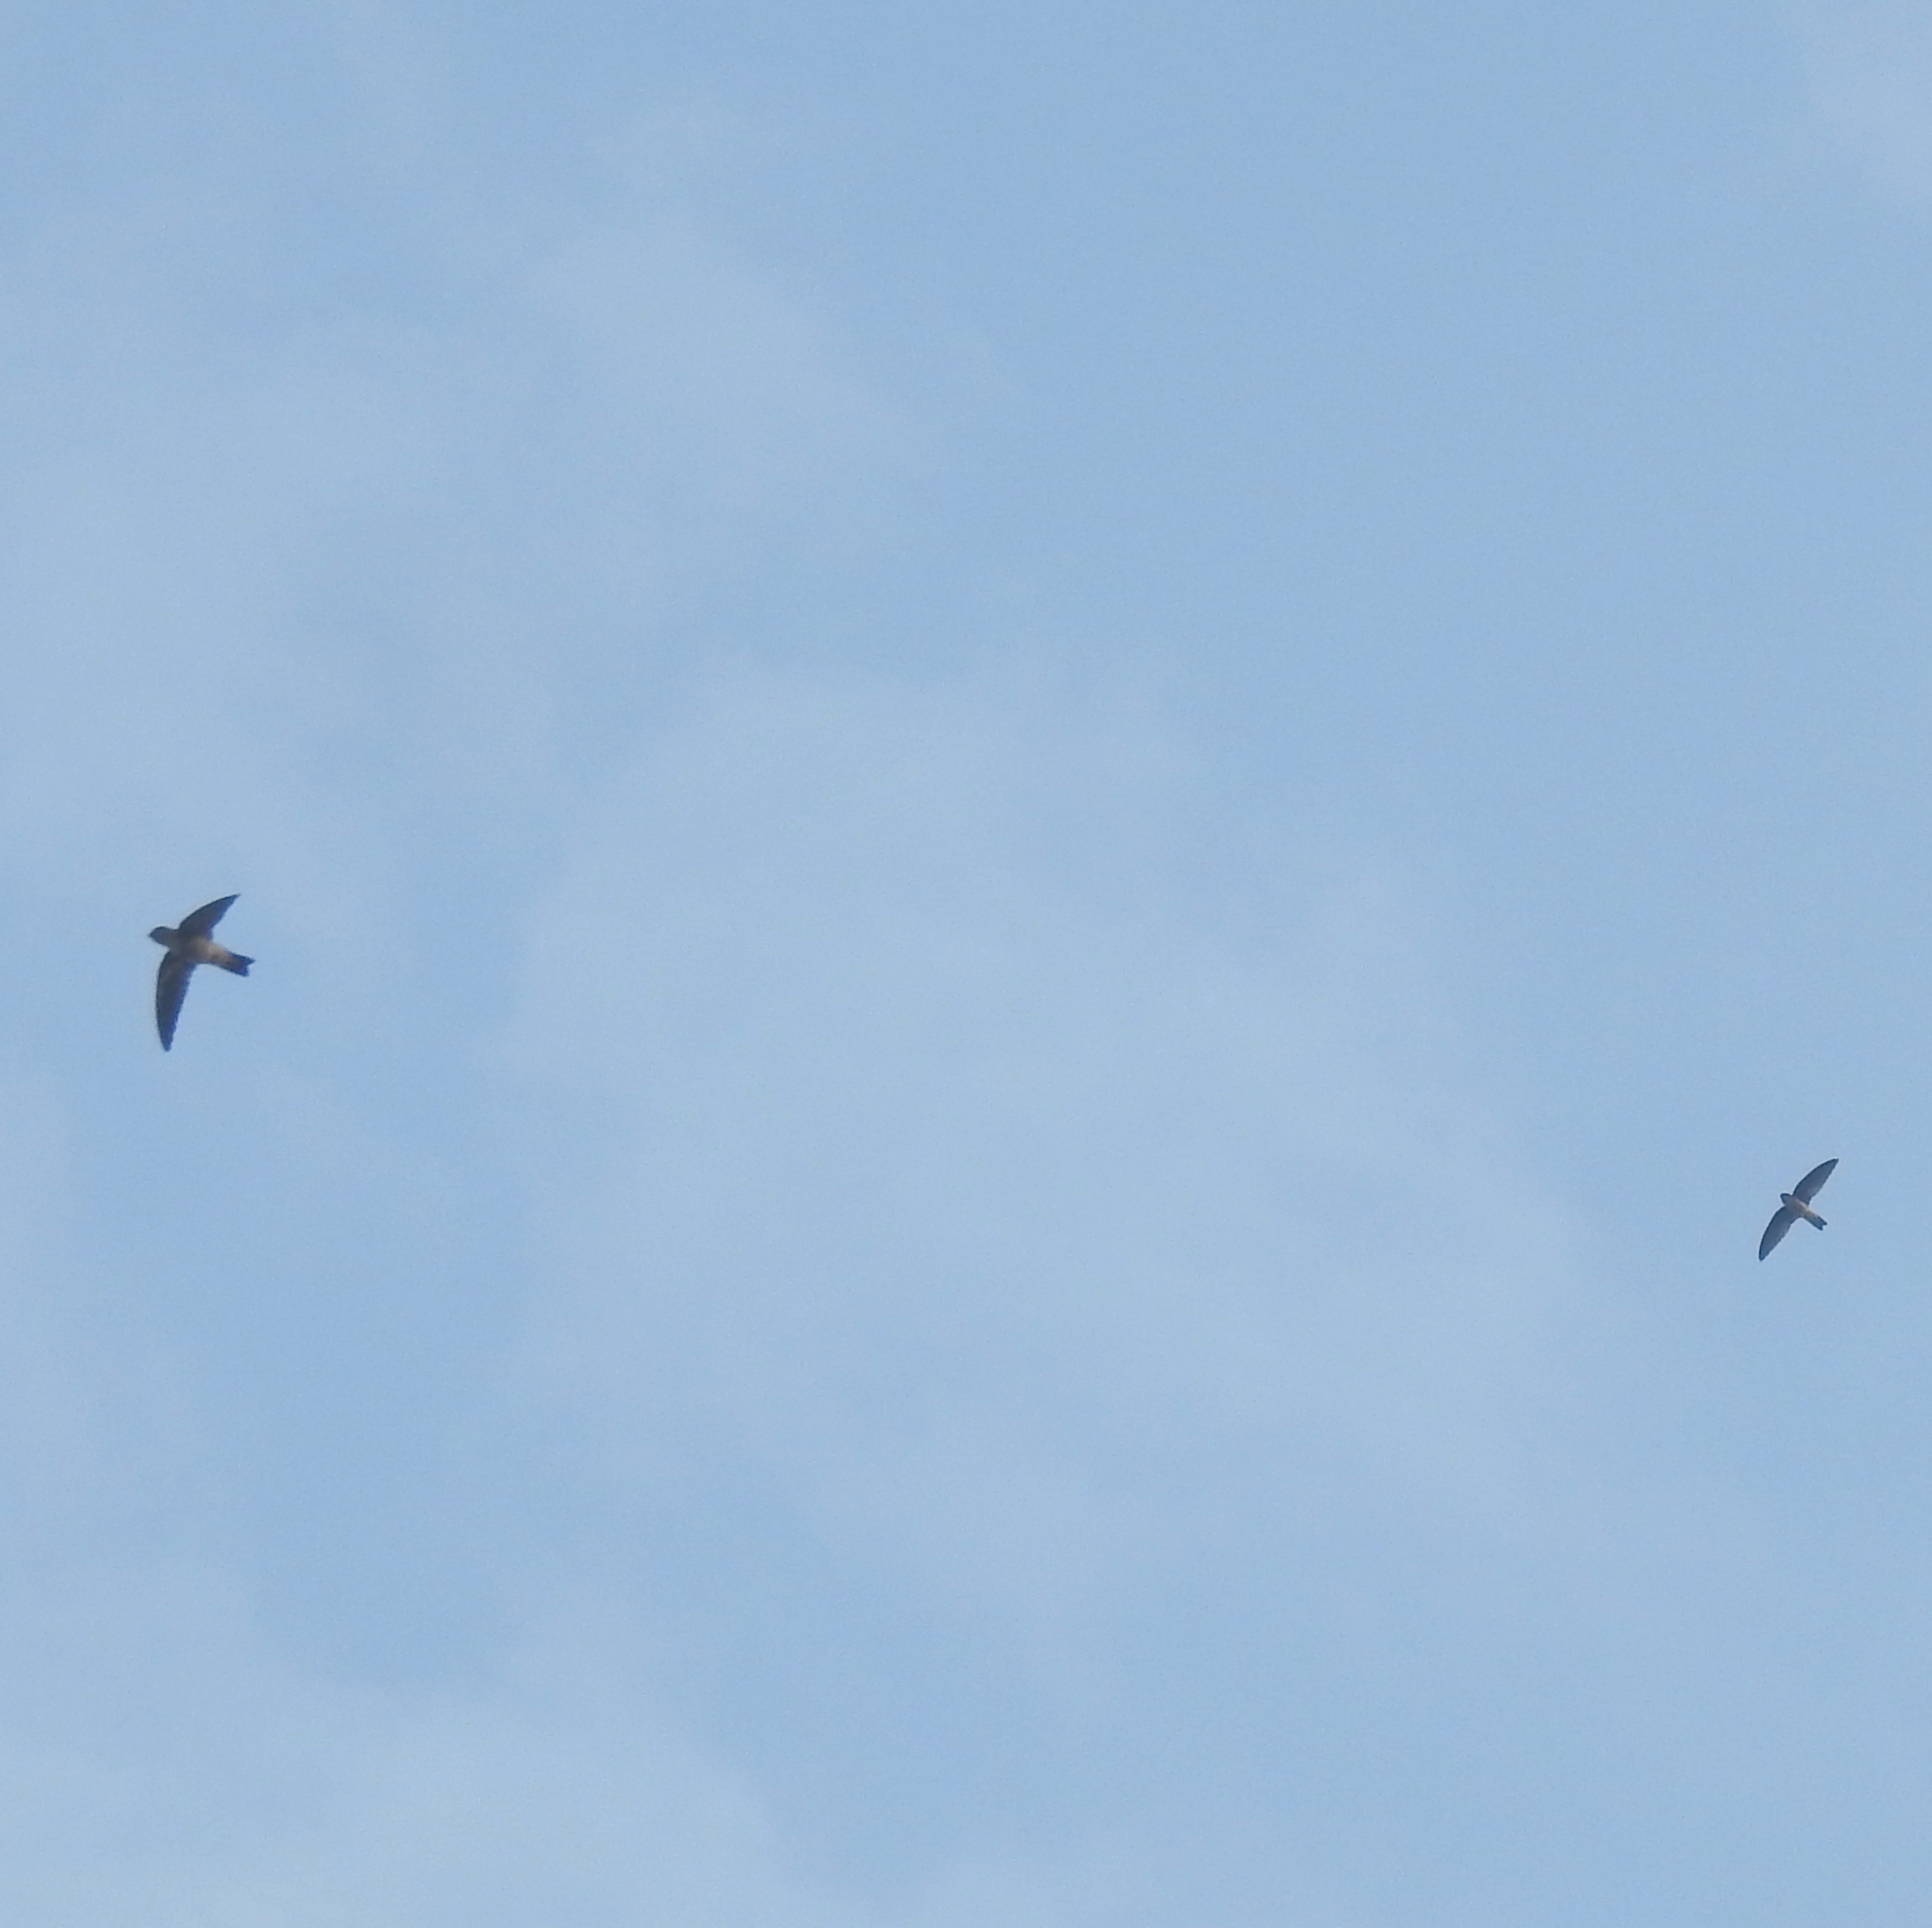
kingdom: Animalia
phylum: Chordata
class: Aves
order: Apodiformes
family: Apodidae
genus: Aerodramus
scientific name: Aerodramus
